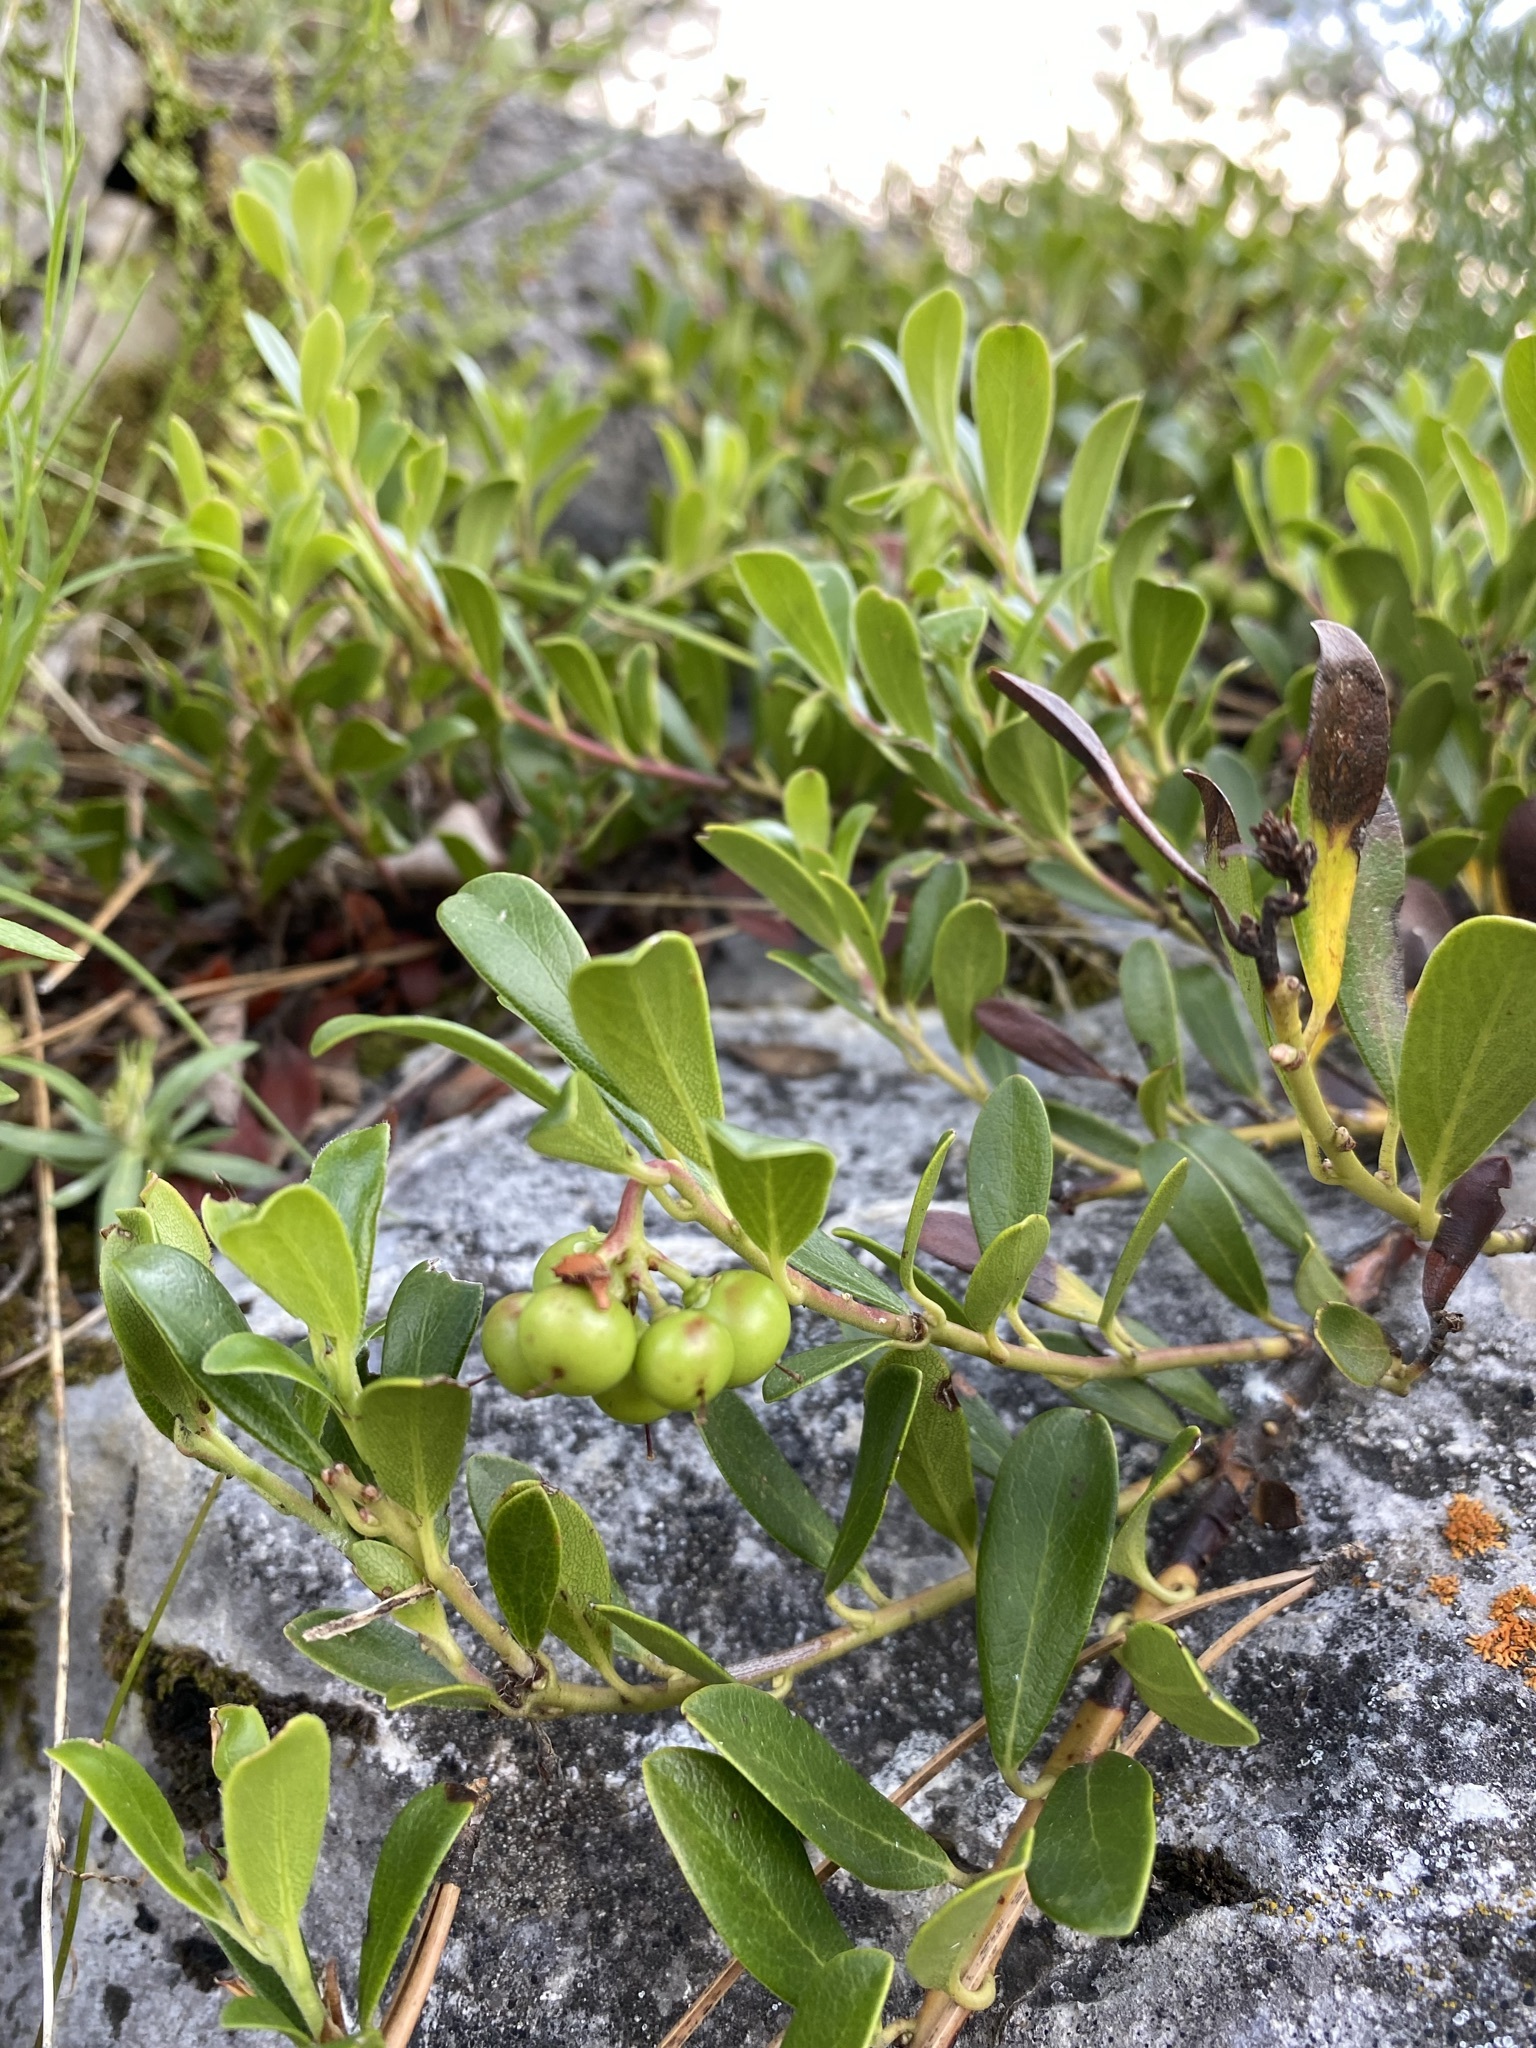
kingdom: Plantae
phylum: Tracheophyta
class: Magnoliopsida
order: Ericales
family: Ericaceae
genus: Arctostaphylos
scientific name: Arctostaphylos uva-ursi
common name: Bearberry
